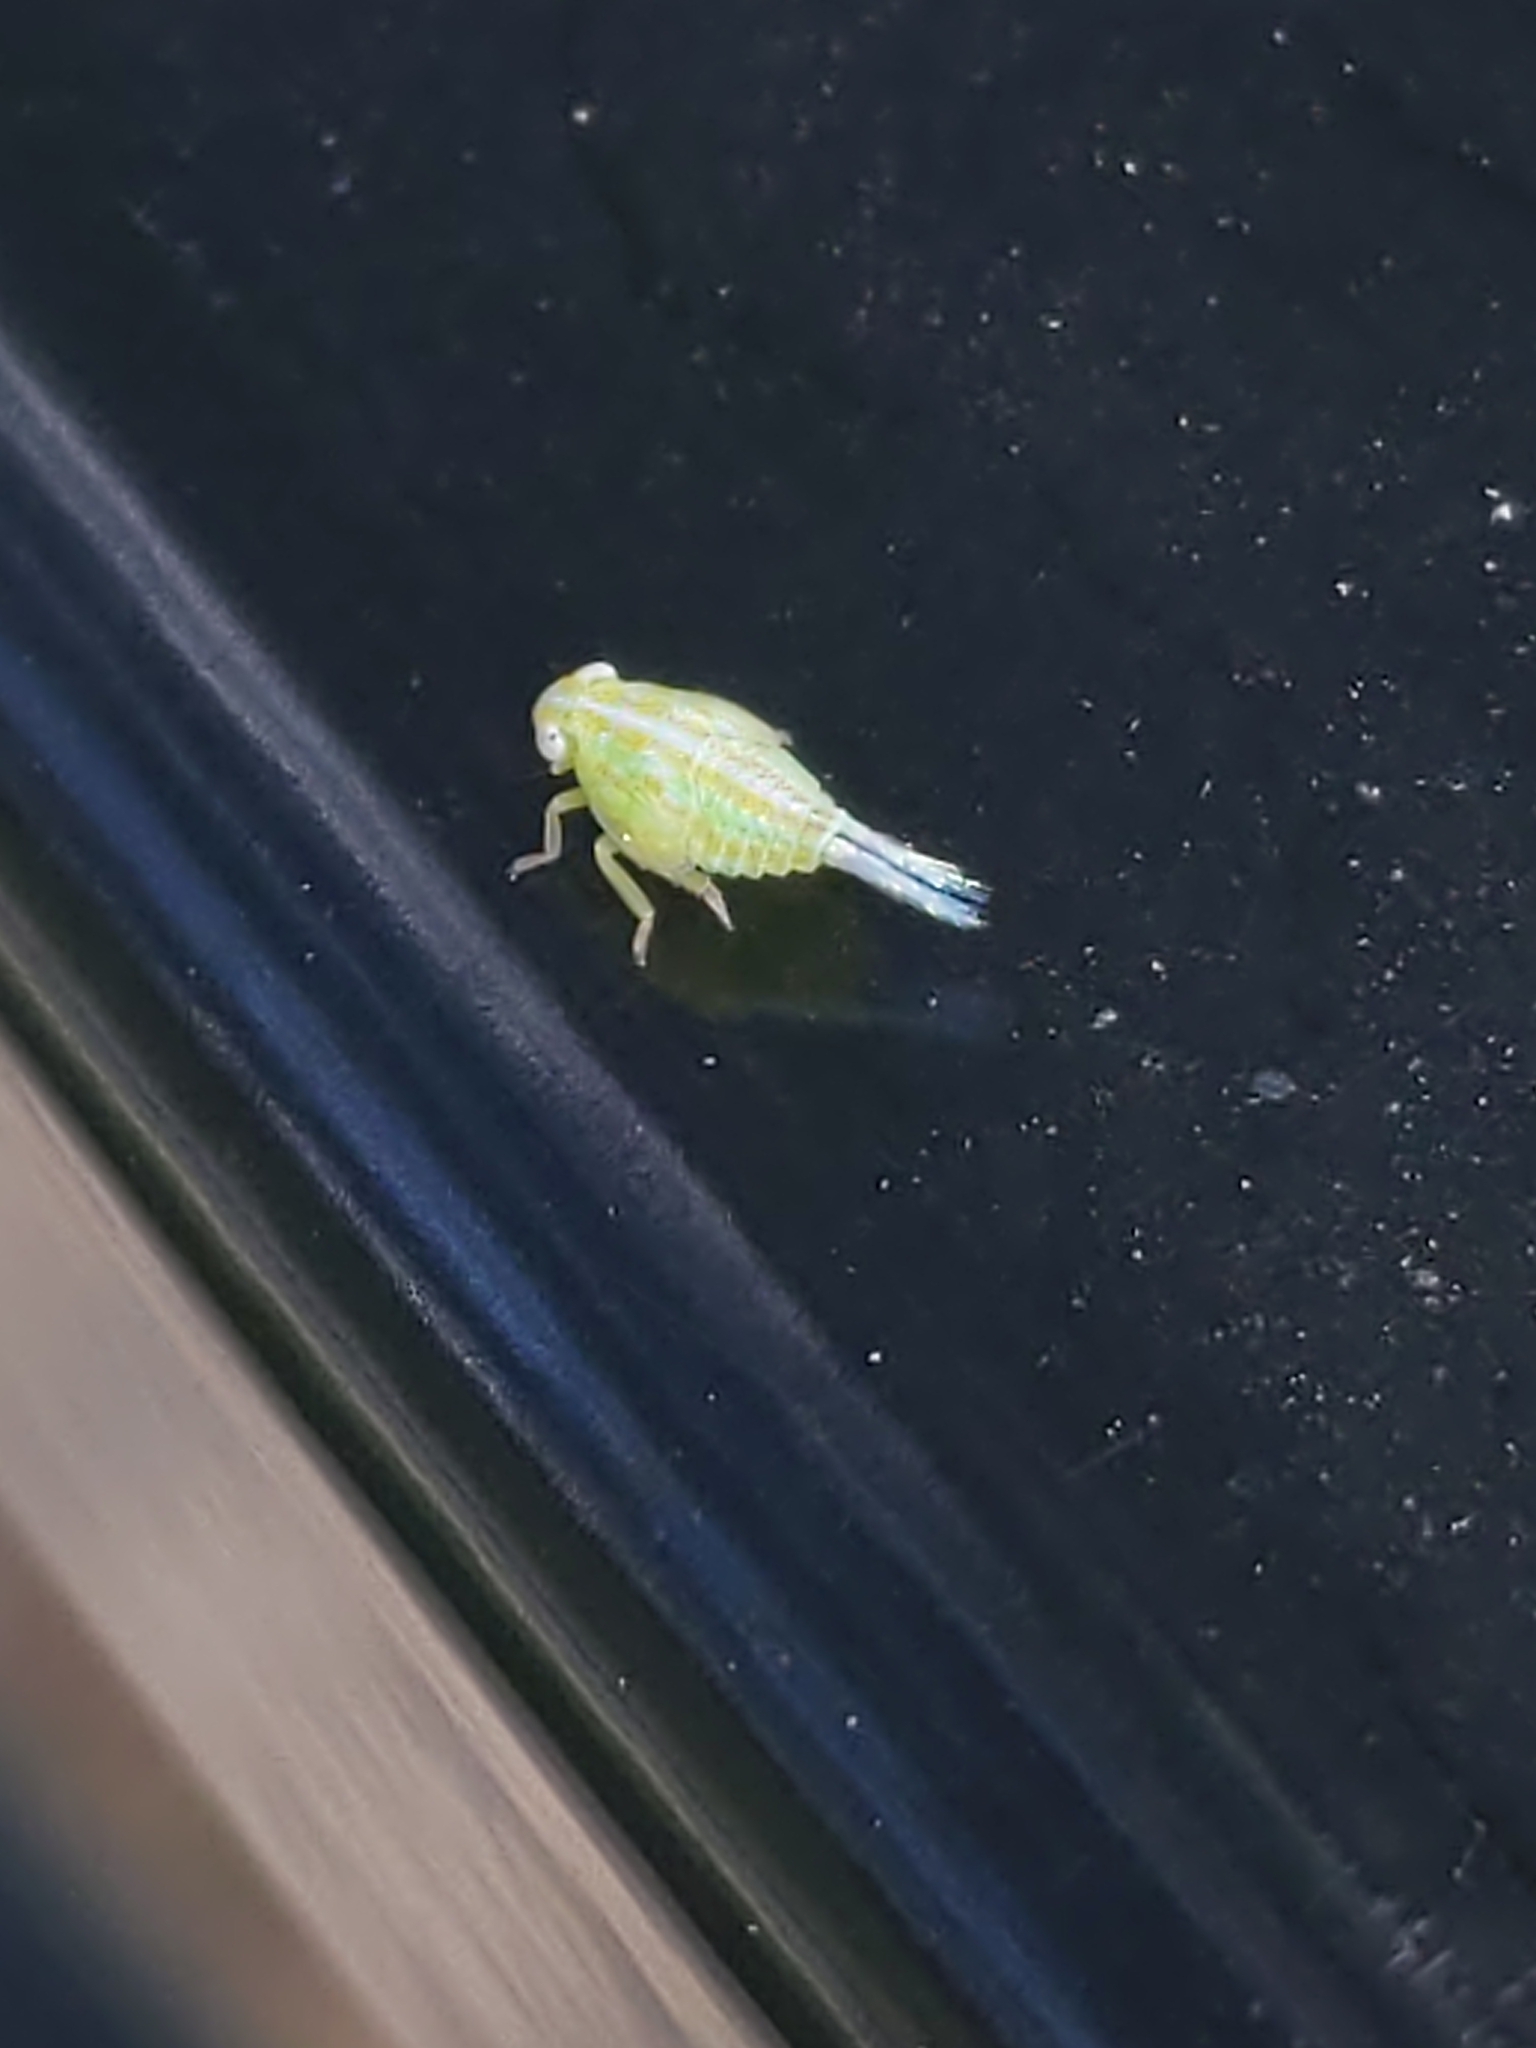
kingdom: Animalia
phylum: Arthropoda
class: Insecta
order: Hemiptera
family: Issidae
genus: Aplos
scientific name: Aplos simplex
